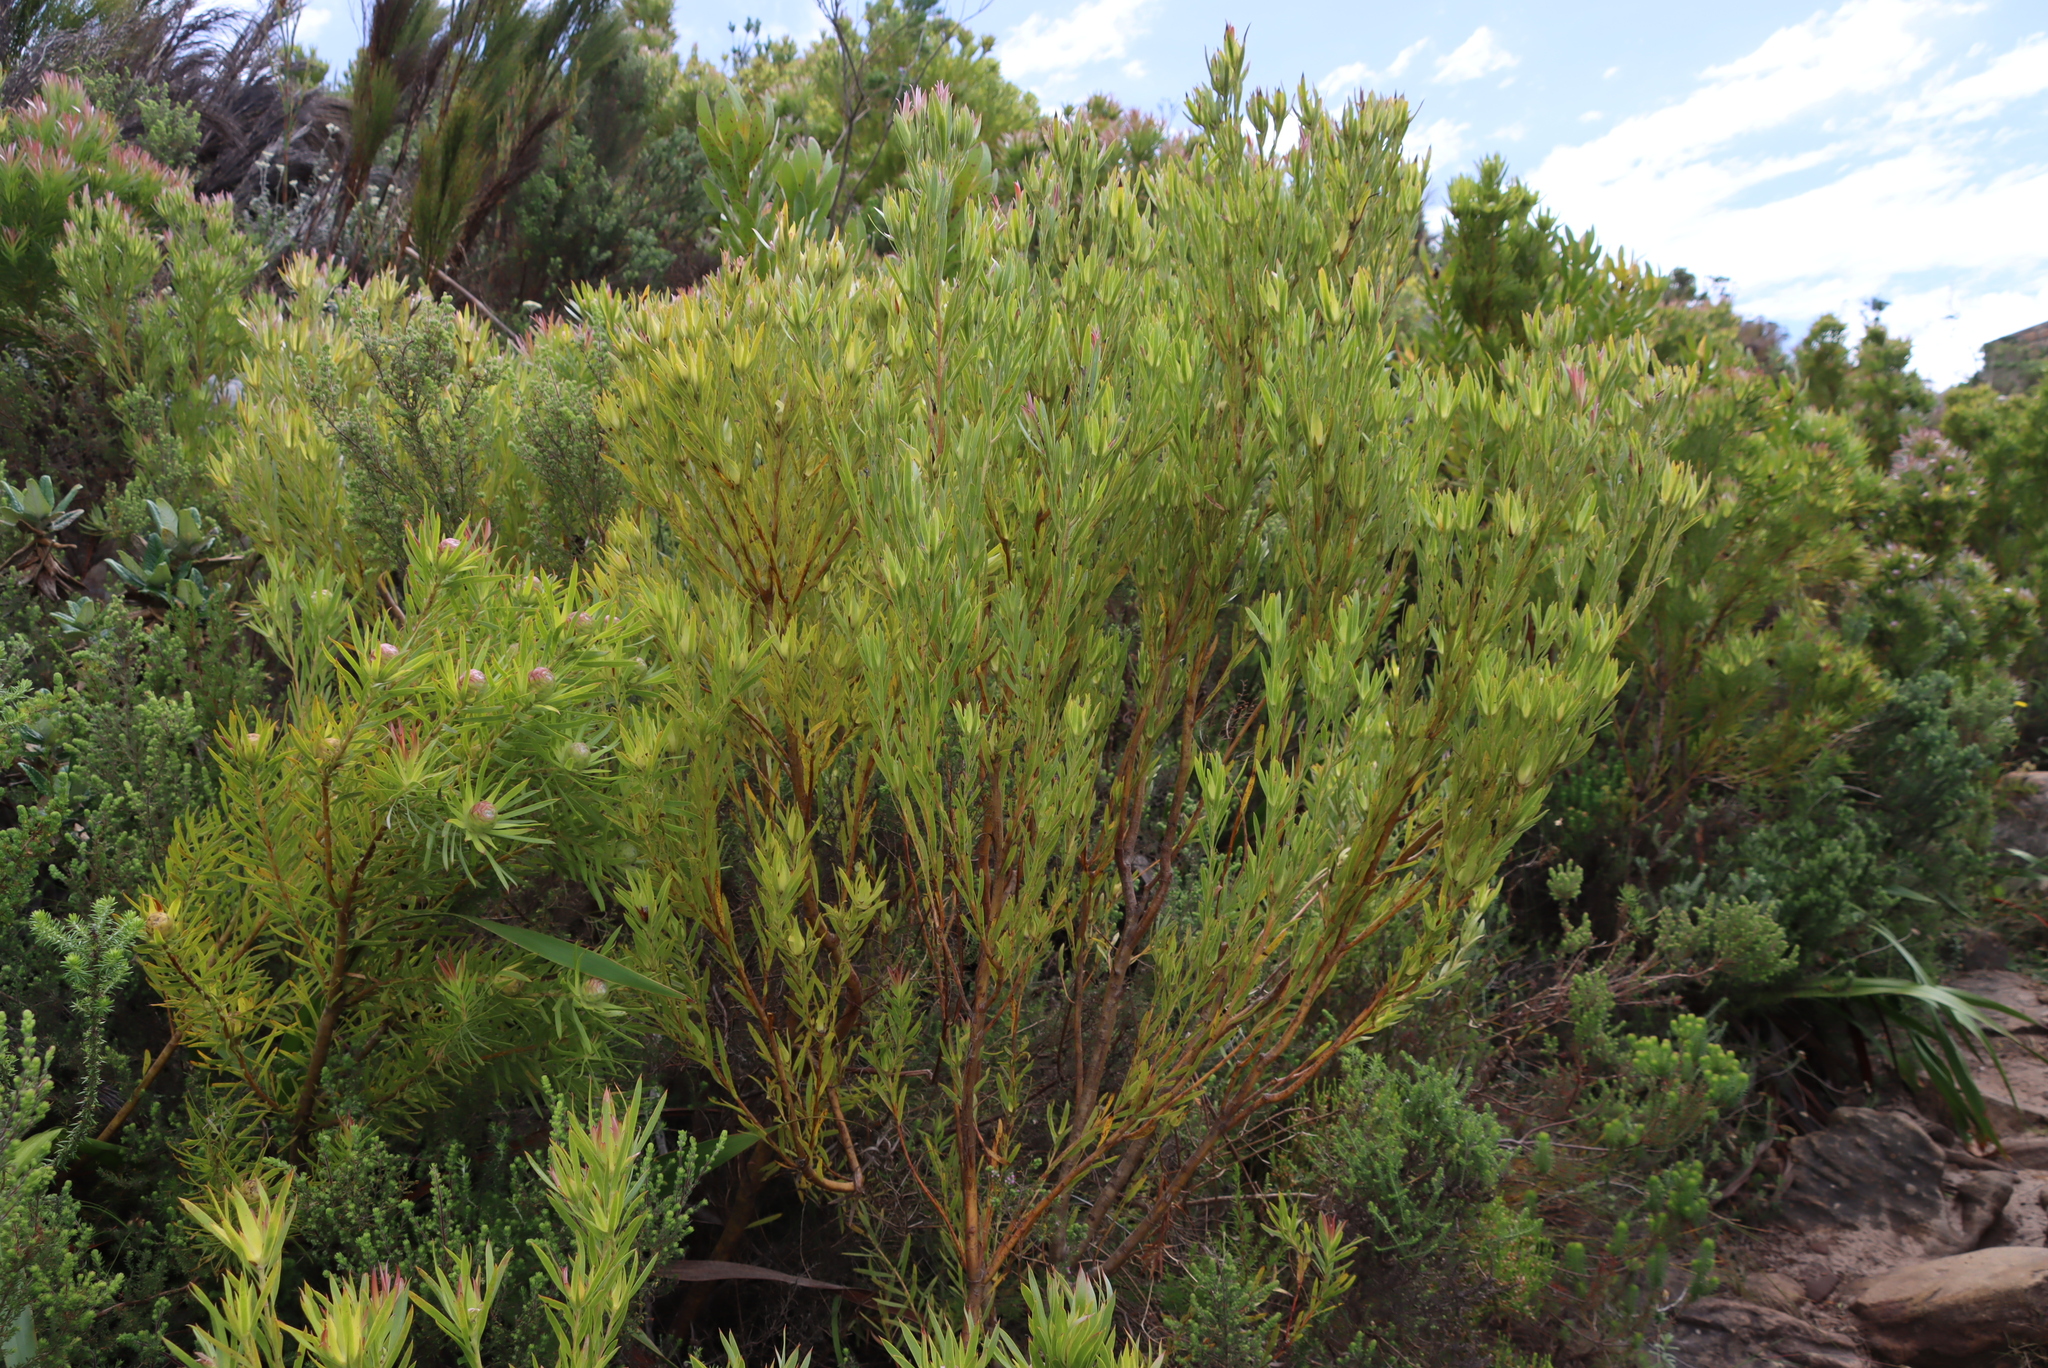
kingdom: Plantae
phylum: Tracheophyta
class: Magnoliopsida
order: Proteales
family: Proteaceae
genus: Leucadendron
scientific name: Leucadendron xanthoconus
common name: Sickle-leaf conebush
